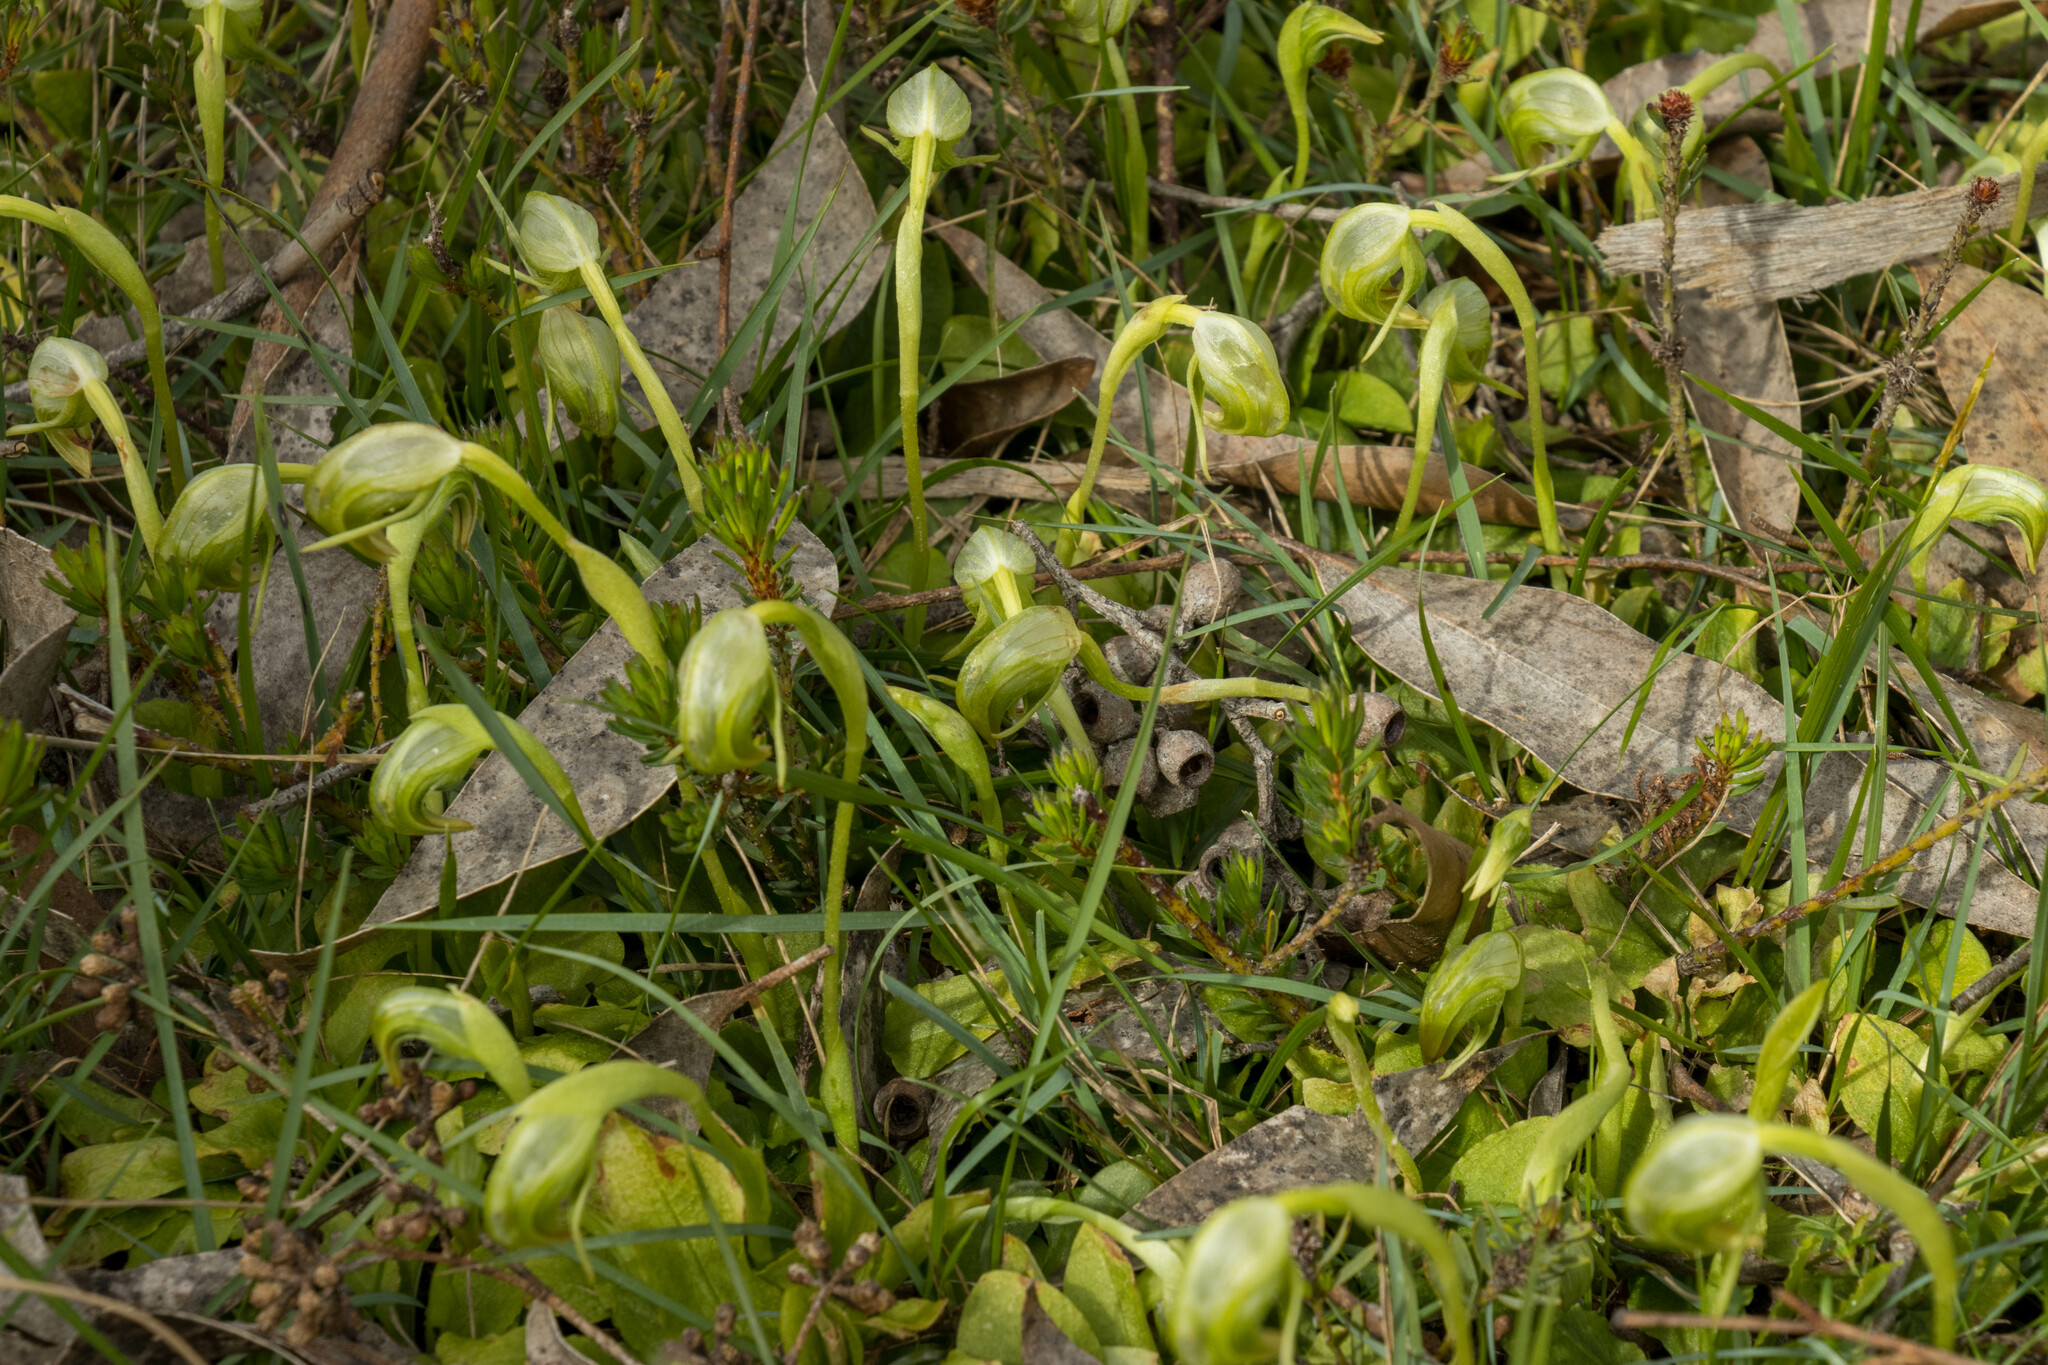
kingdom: Plantae
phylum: Tracheophyta
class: Liliopsida
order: Asparagales
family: Orchidaceae
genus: Pterostylis
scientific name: Pterostylis nutans
